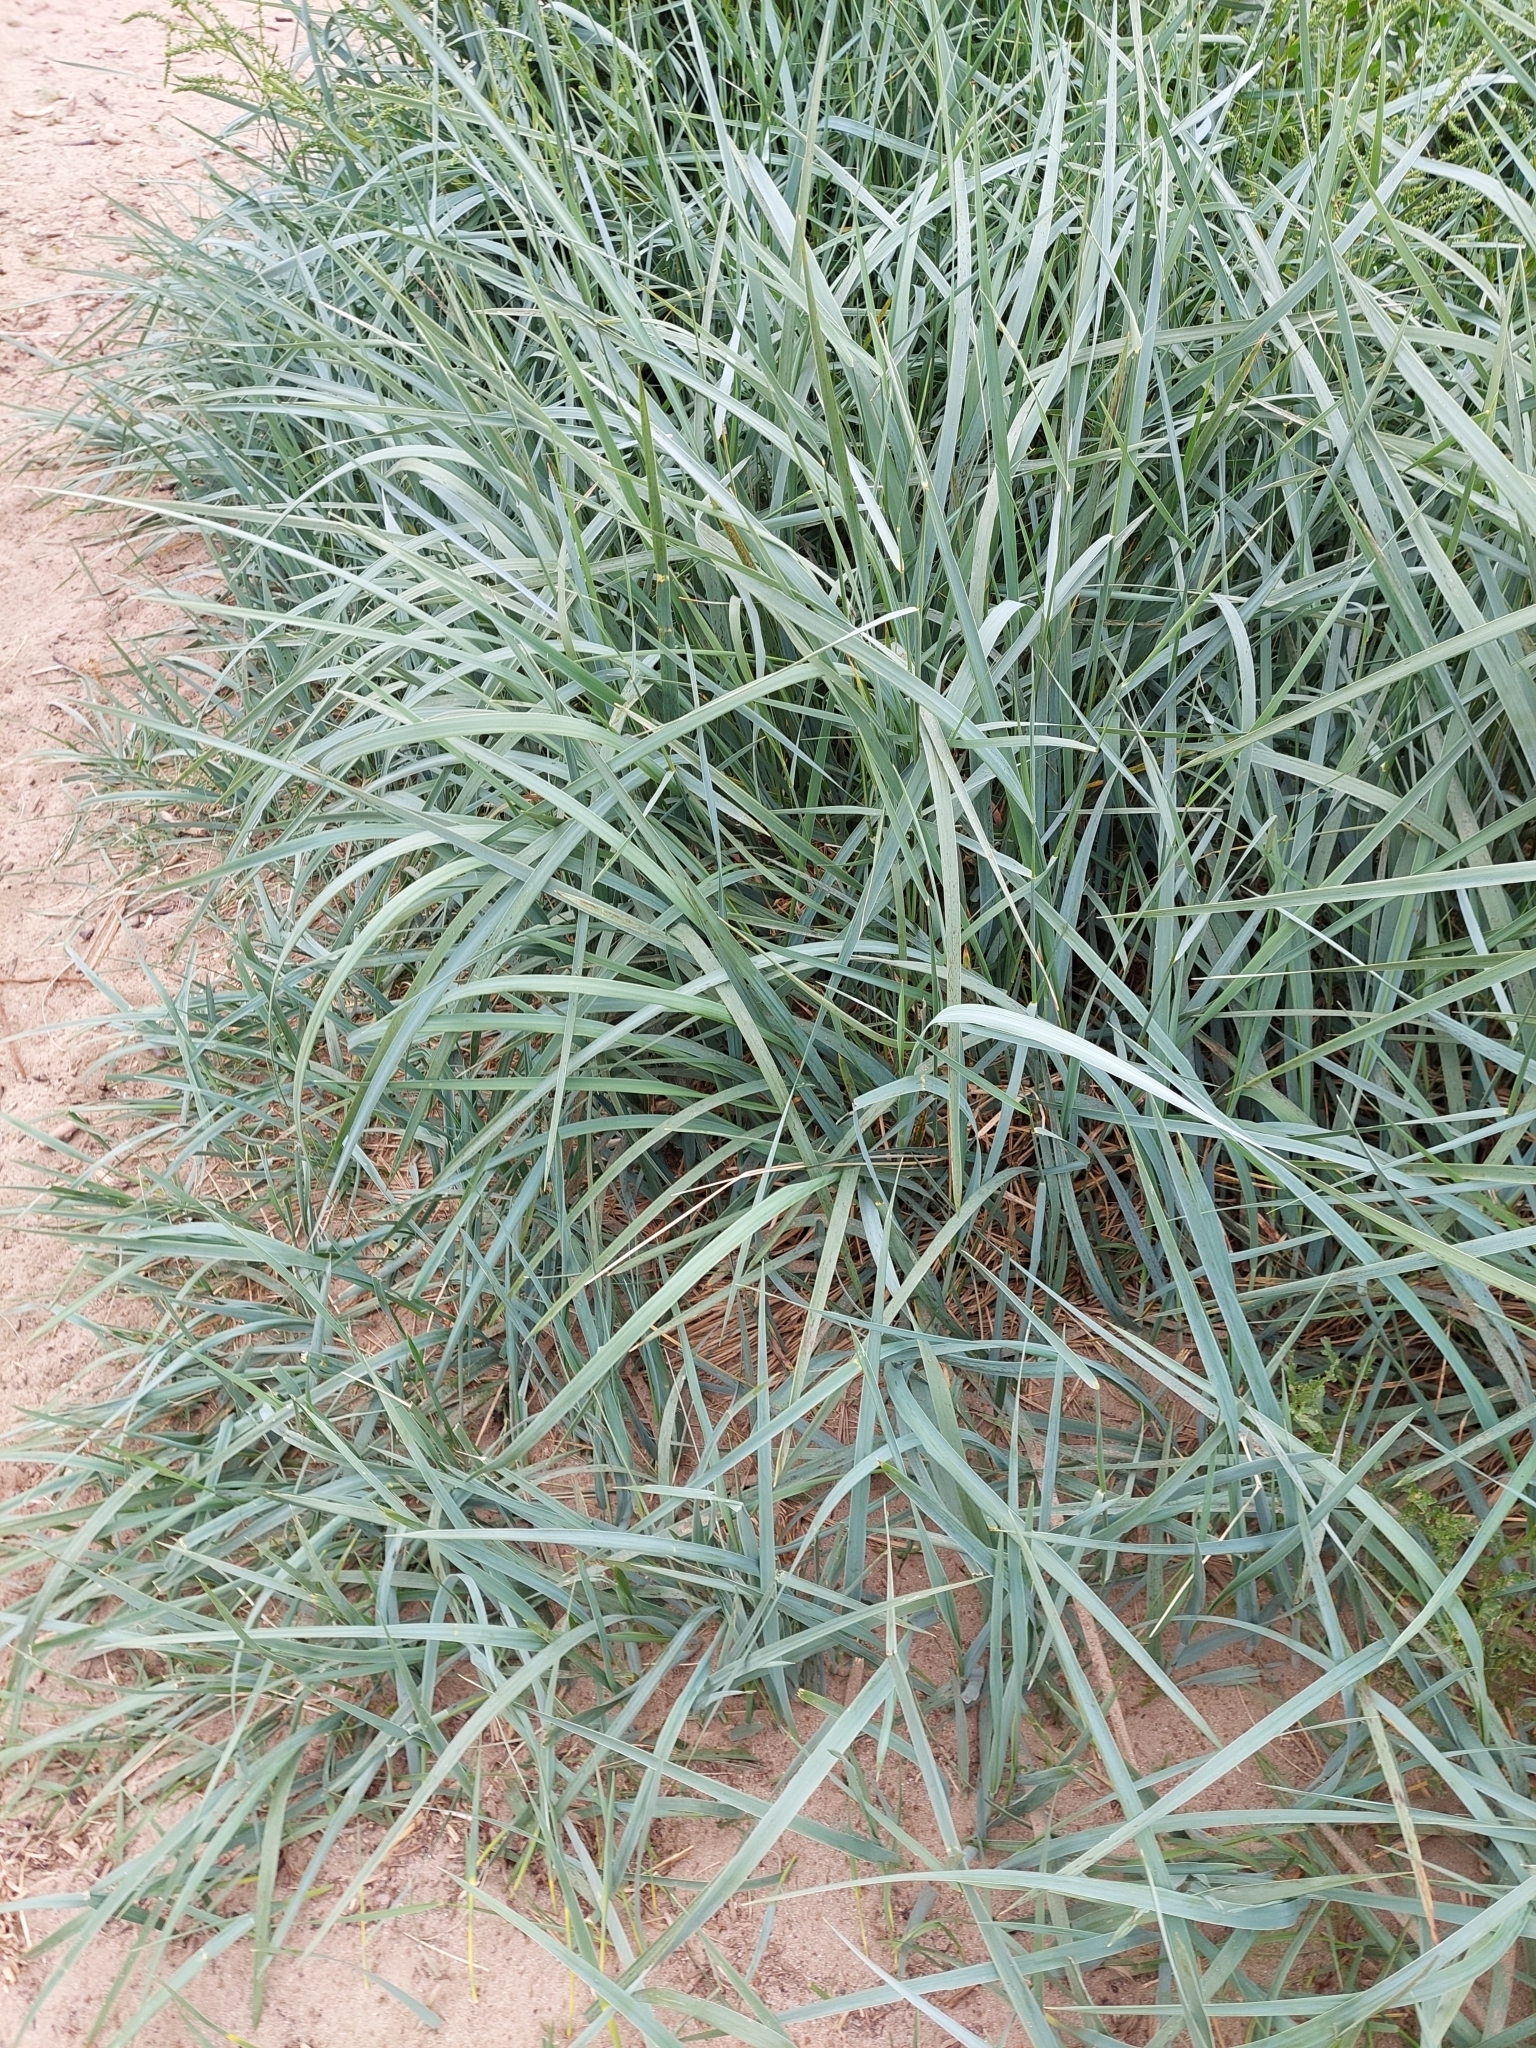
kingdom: Plantae
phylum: Tracheophyta
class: Liliopsida
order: Poales
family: Poaceae
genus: Leymus
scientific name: Leymus arenarius
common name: Lyme-grass
